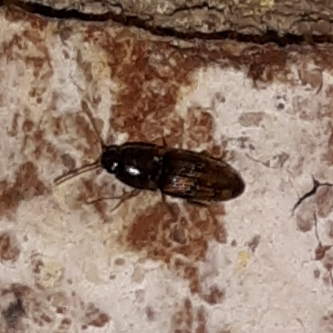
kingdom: Animalia
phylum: Arthropoda
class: Insecta
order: Coleoptera
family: Elateridae
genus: Monocrepidius
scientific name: Monocrepidius bellus
